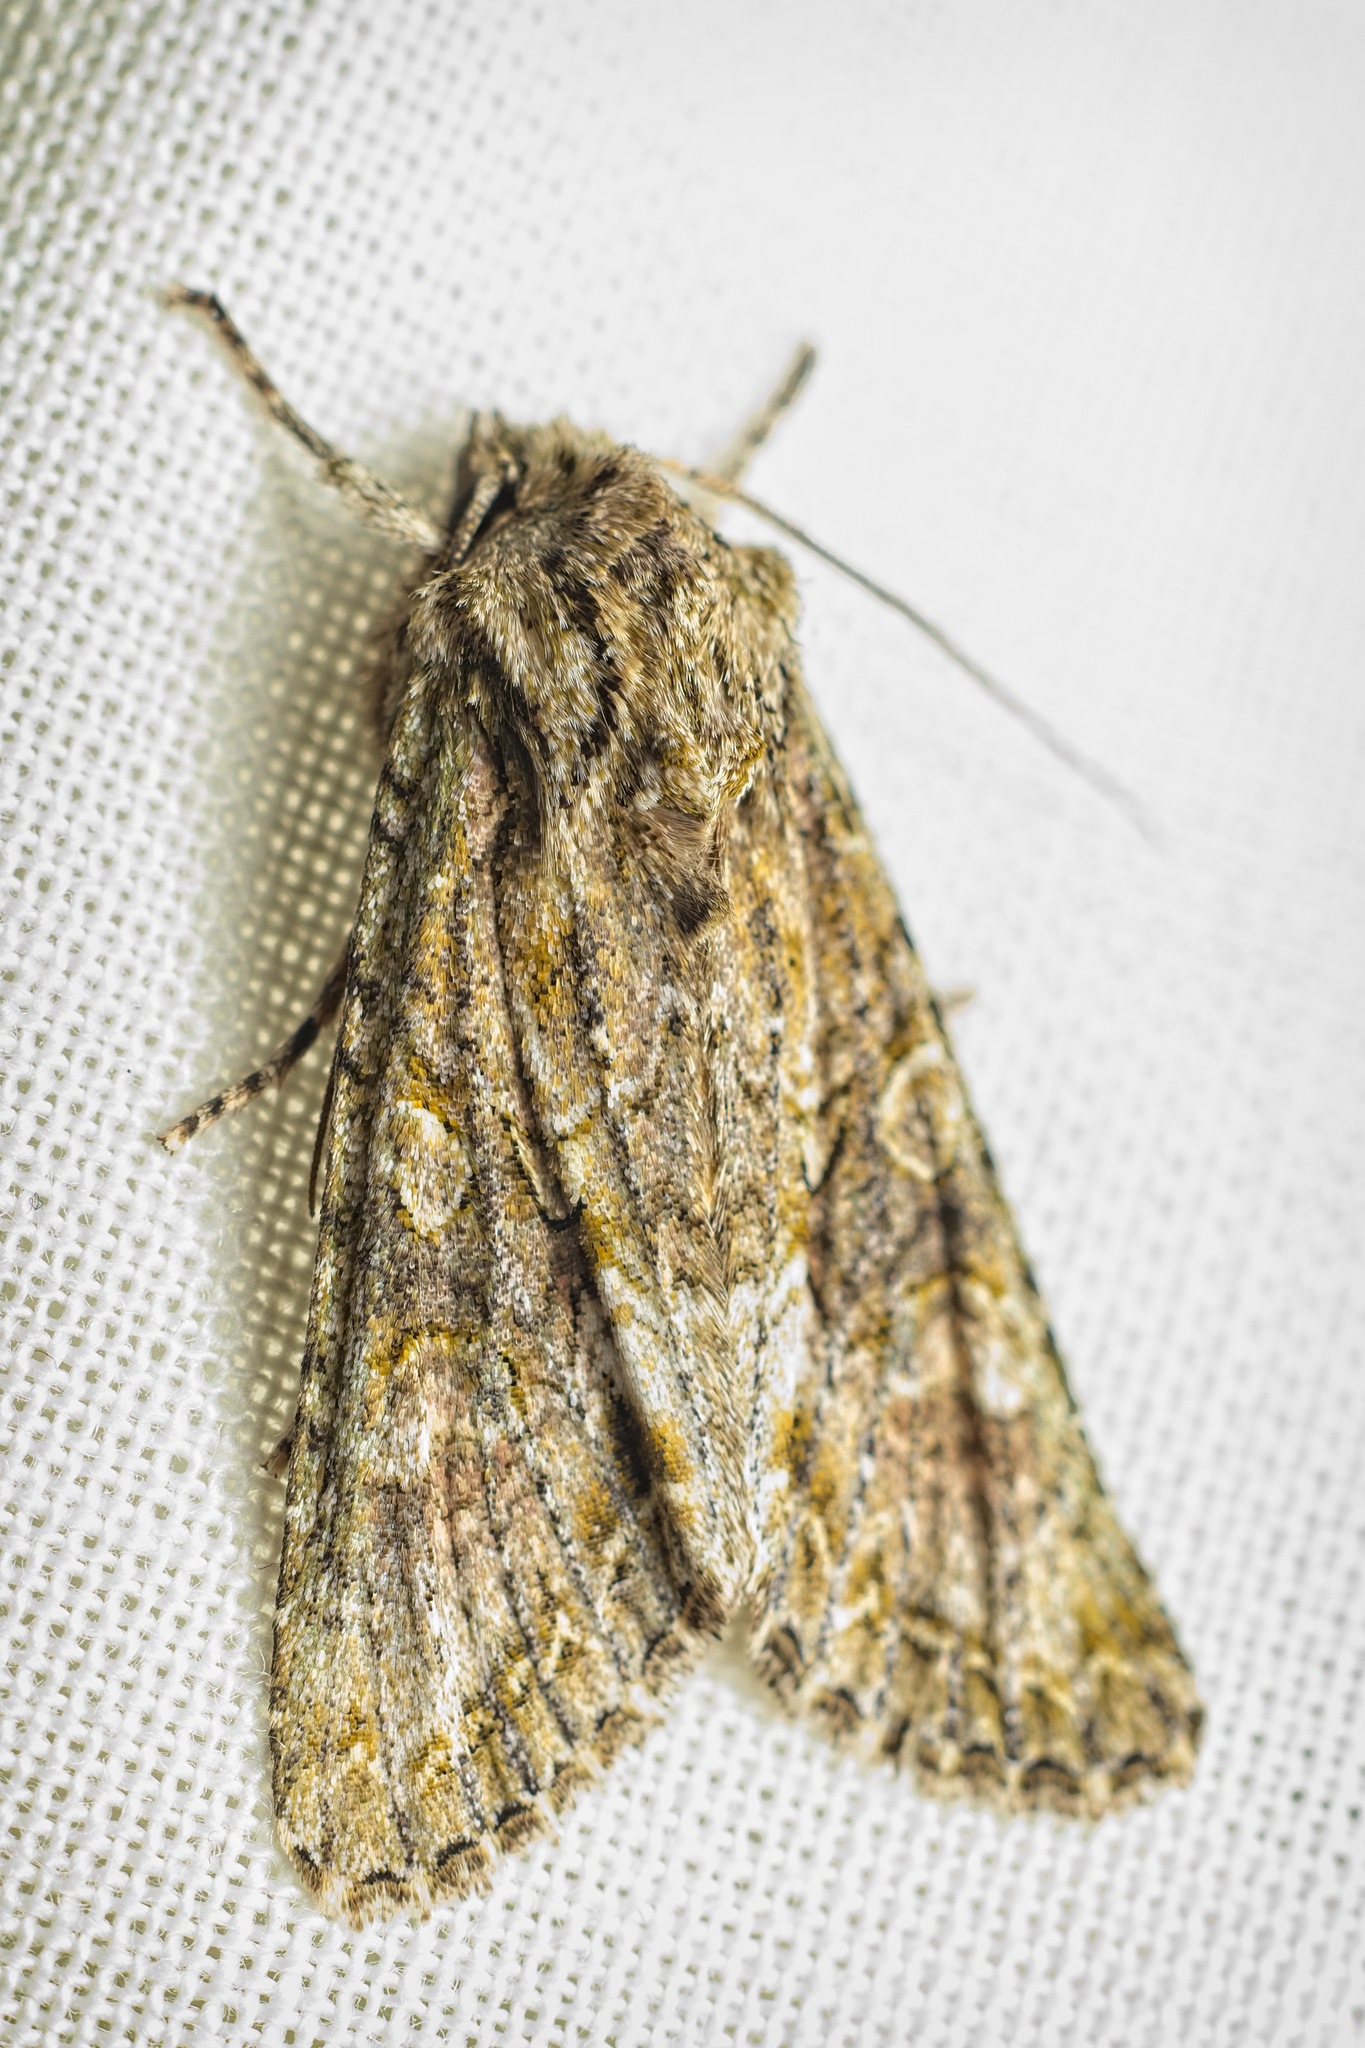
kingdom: Animalia
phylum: Arthropoda
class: Insecta
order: Lepidoptera
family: Noctuidae
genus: Ichneutica
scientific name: Ichneutica mutans
